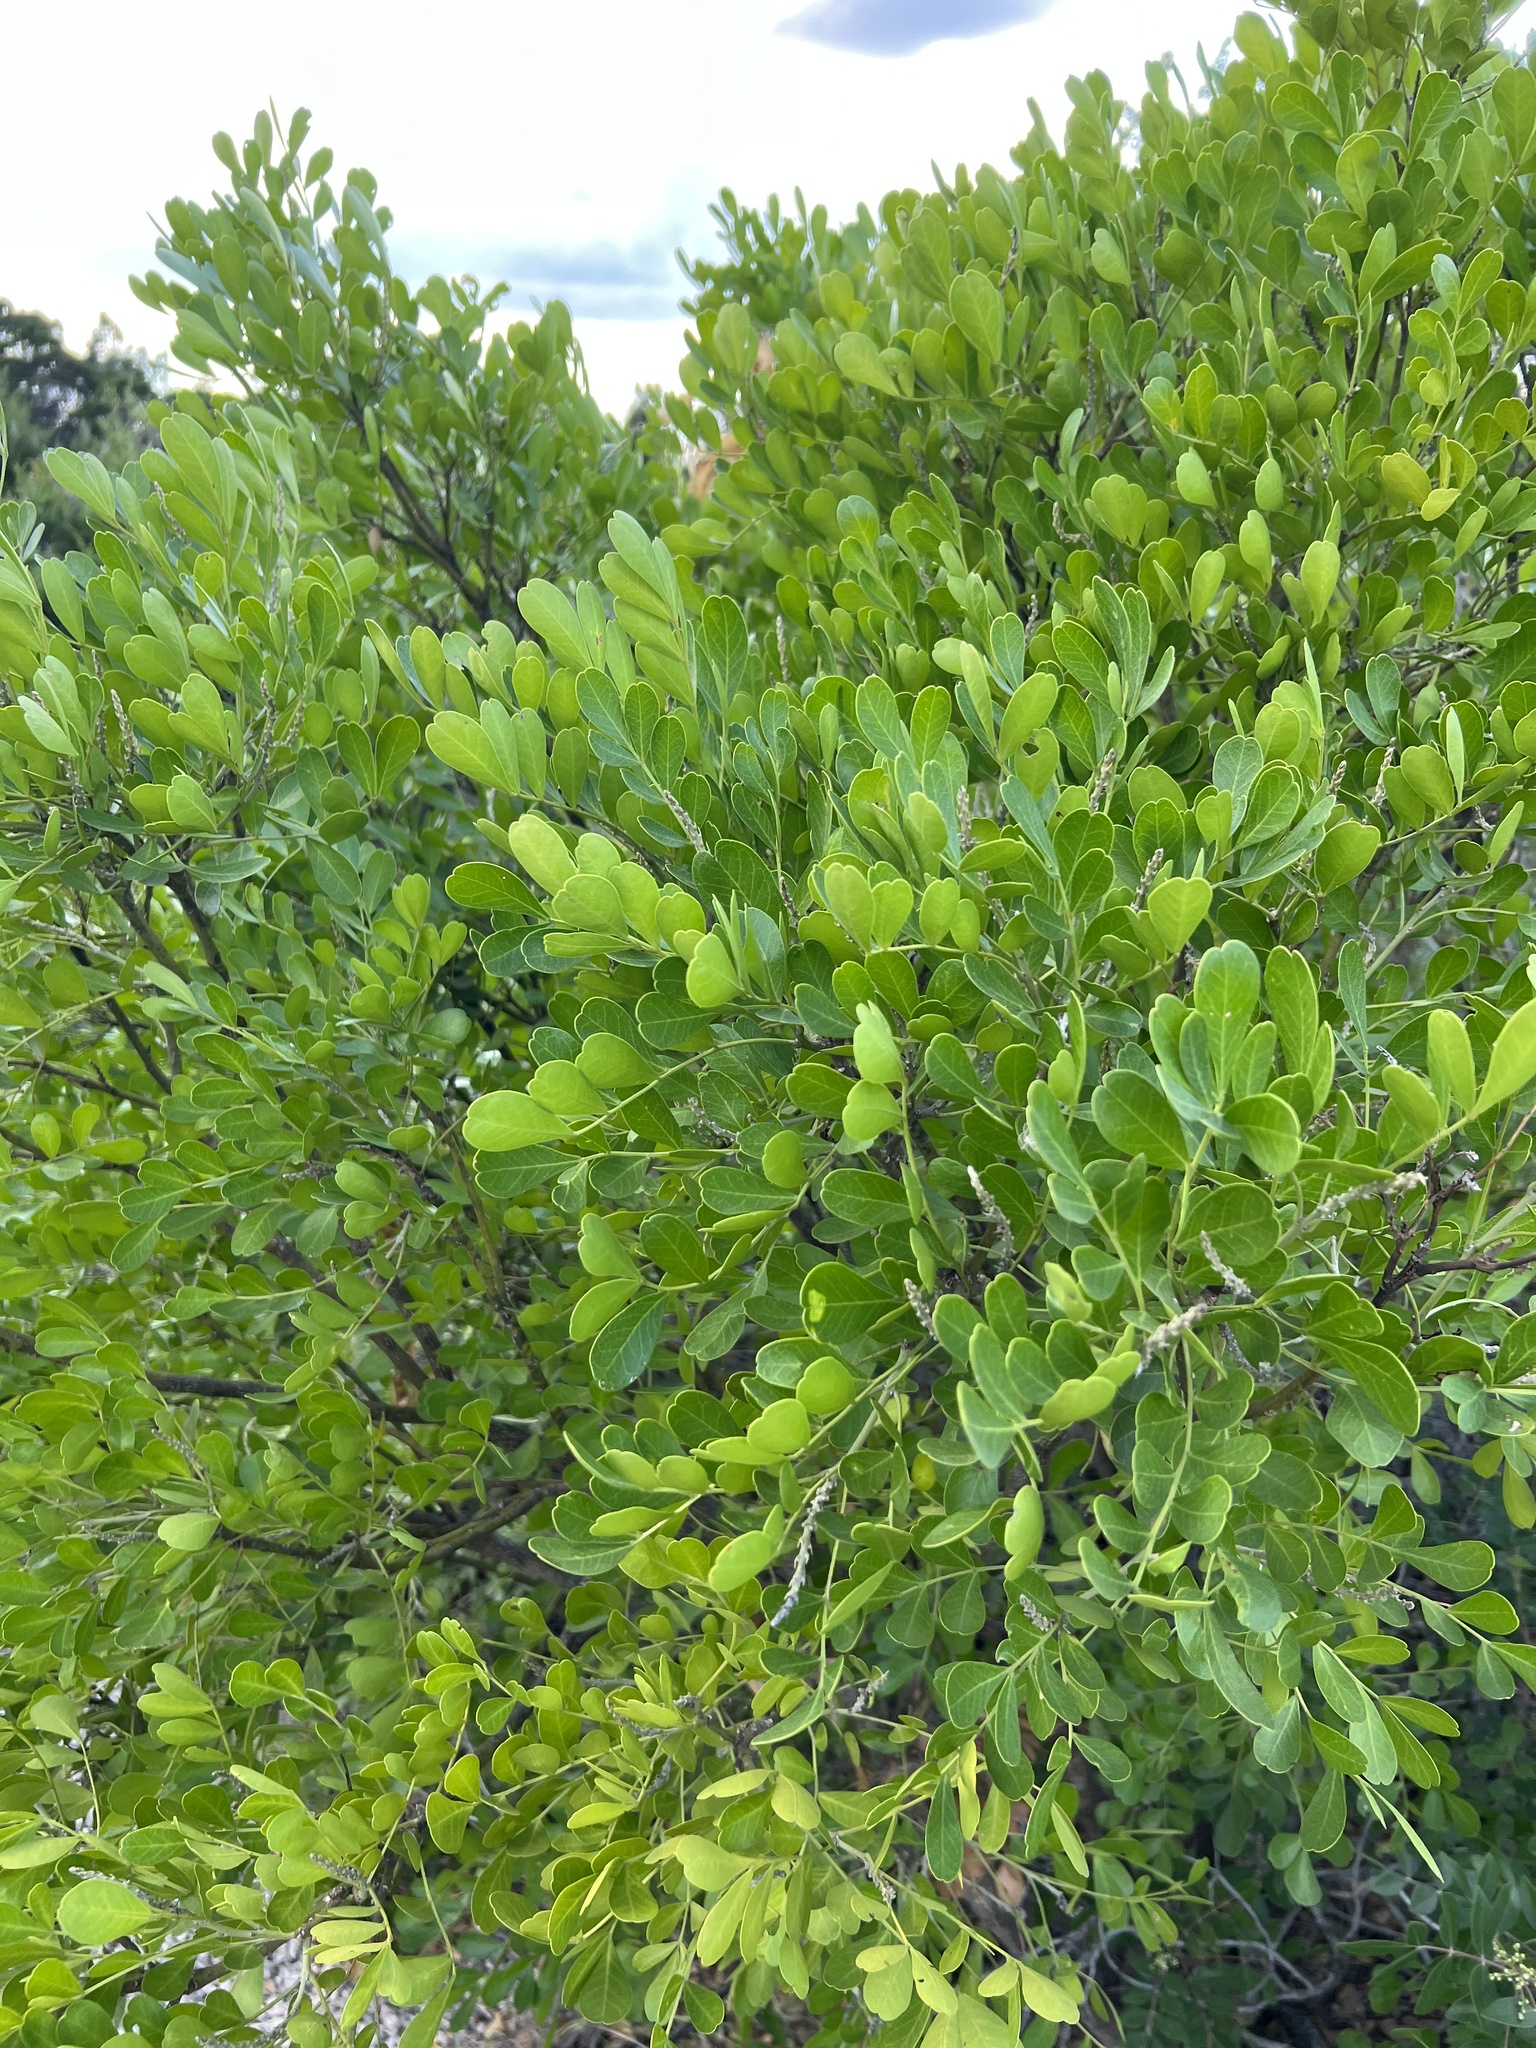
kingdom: Plantae
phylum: Tracheophyta
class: Magnoliopsida
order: Fabales
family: Fabaceae
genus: Dermatophyllum
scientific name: Dermatophyllum secundiflorum
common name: Texas-mountain-laurel
